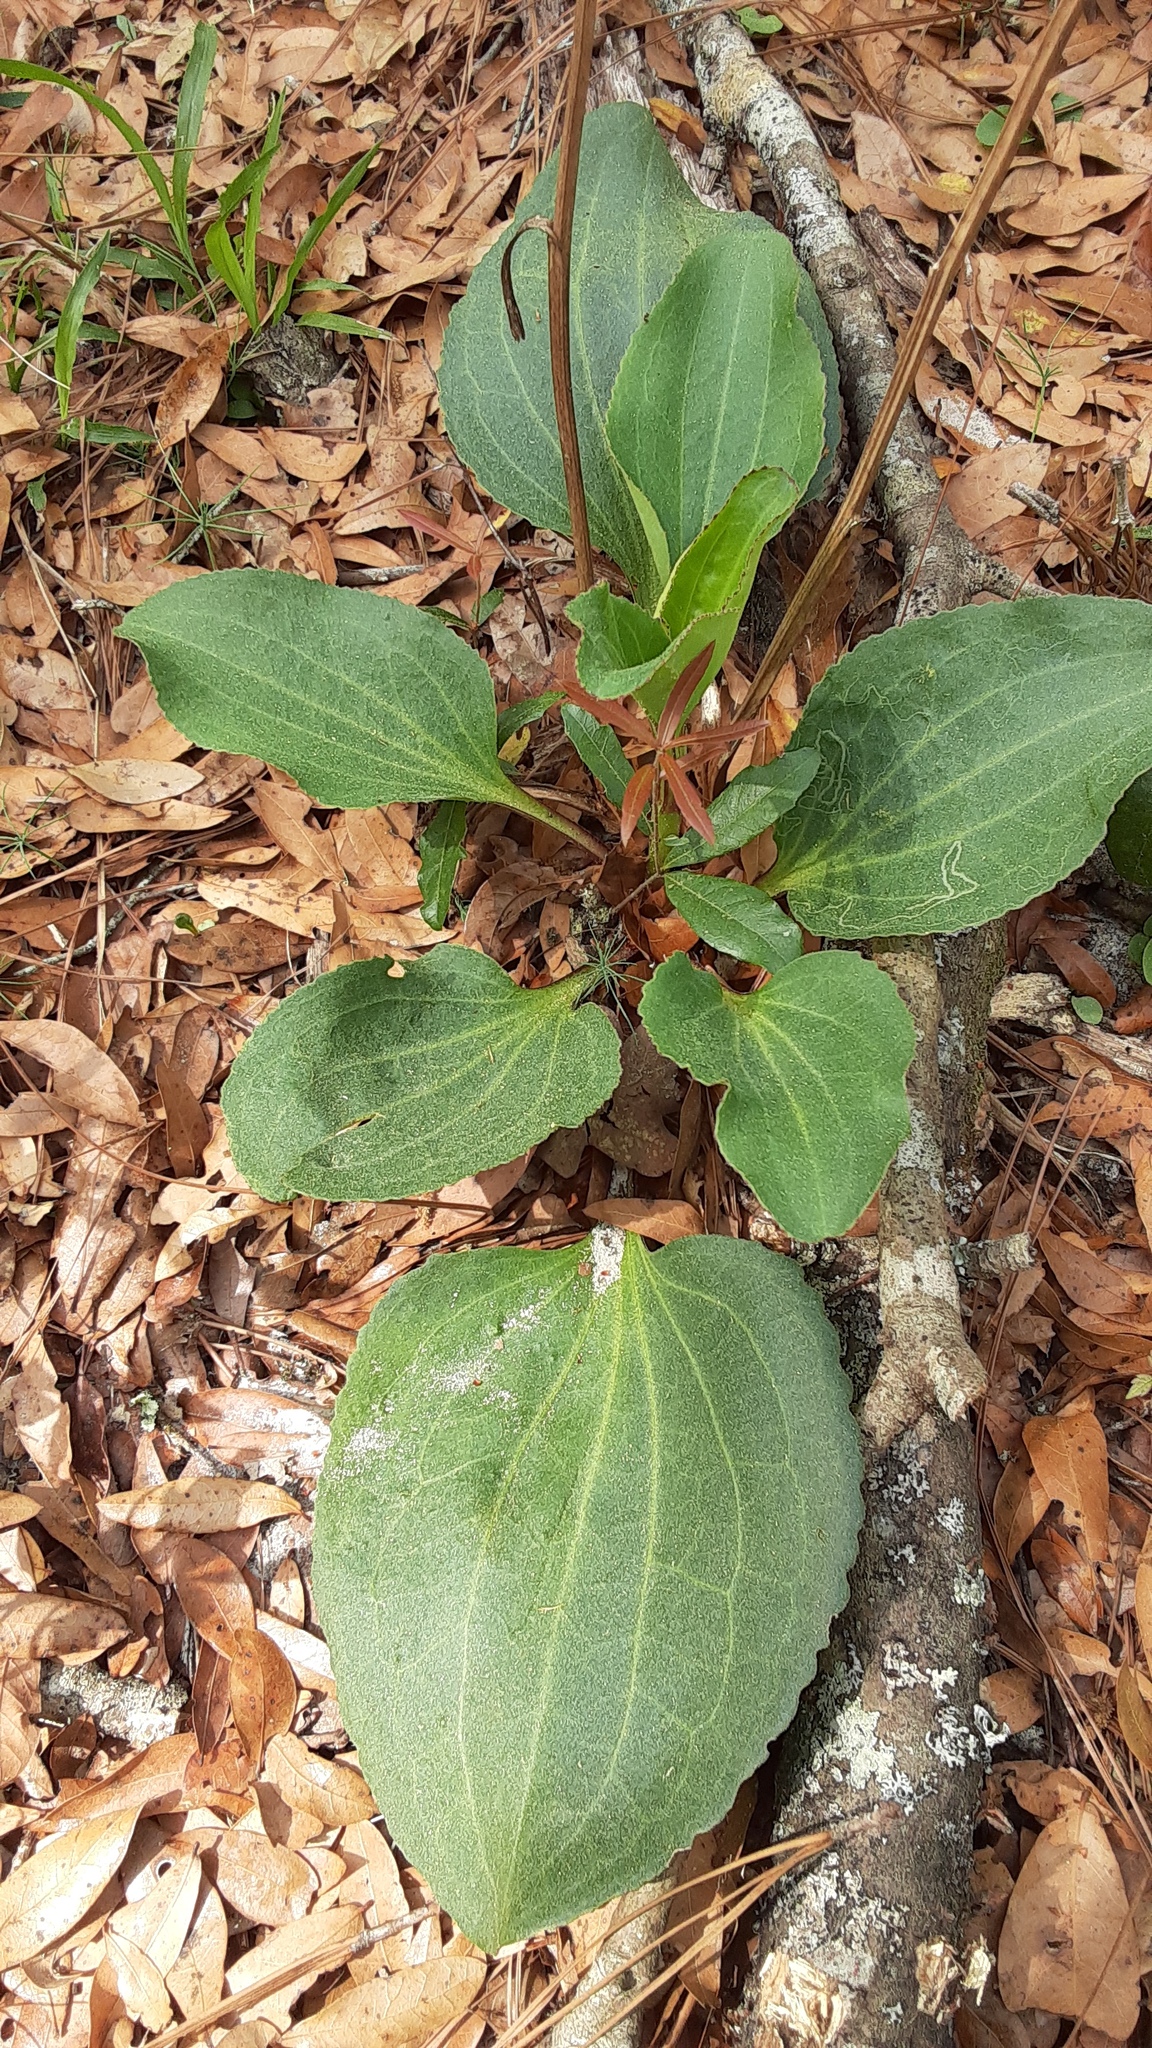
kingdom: Plantae
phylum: Tracheophyta
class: Magnoliopsida
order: Asterales
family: Asteraceae
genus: Arnoglossum
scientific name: Arnoglossum floridanum
